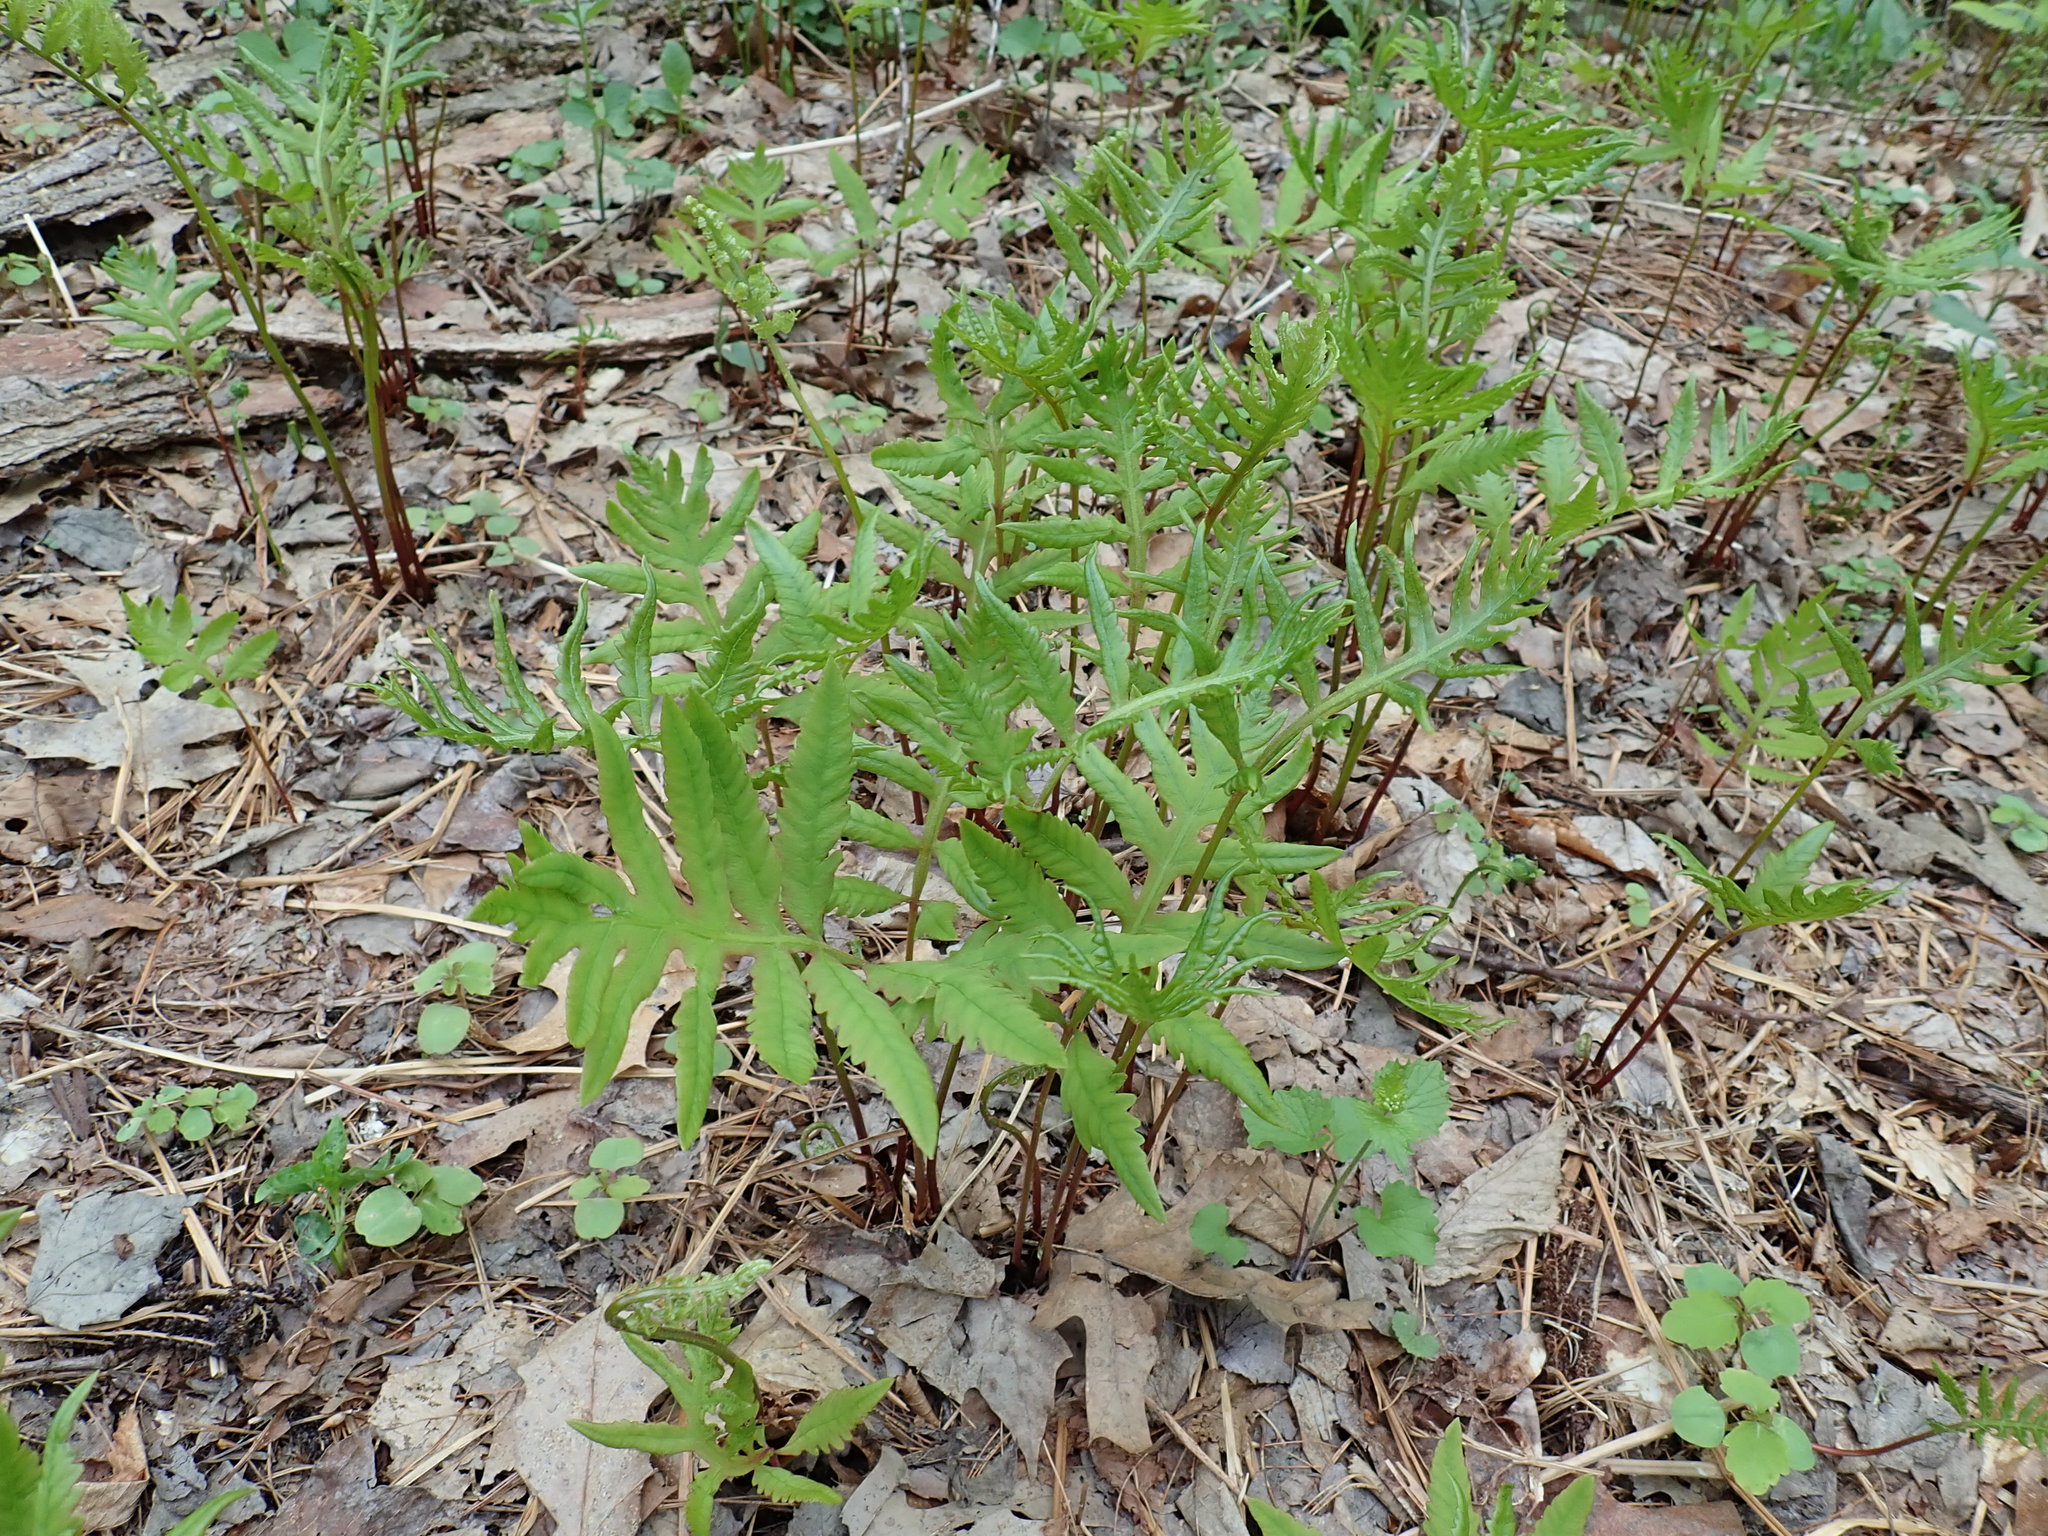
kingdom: Plantae
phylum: Tracheophyta
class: Polypodiopsida
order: Polypodiales
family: Onocleaceae
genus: Onoclea
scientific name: Onoclea sensibilis
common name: Sensitive fern
